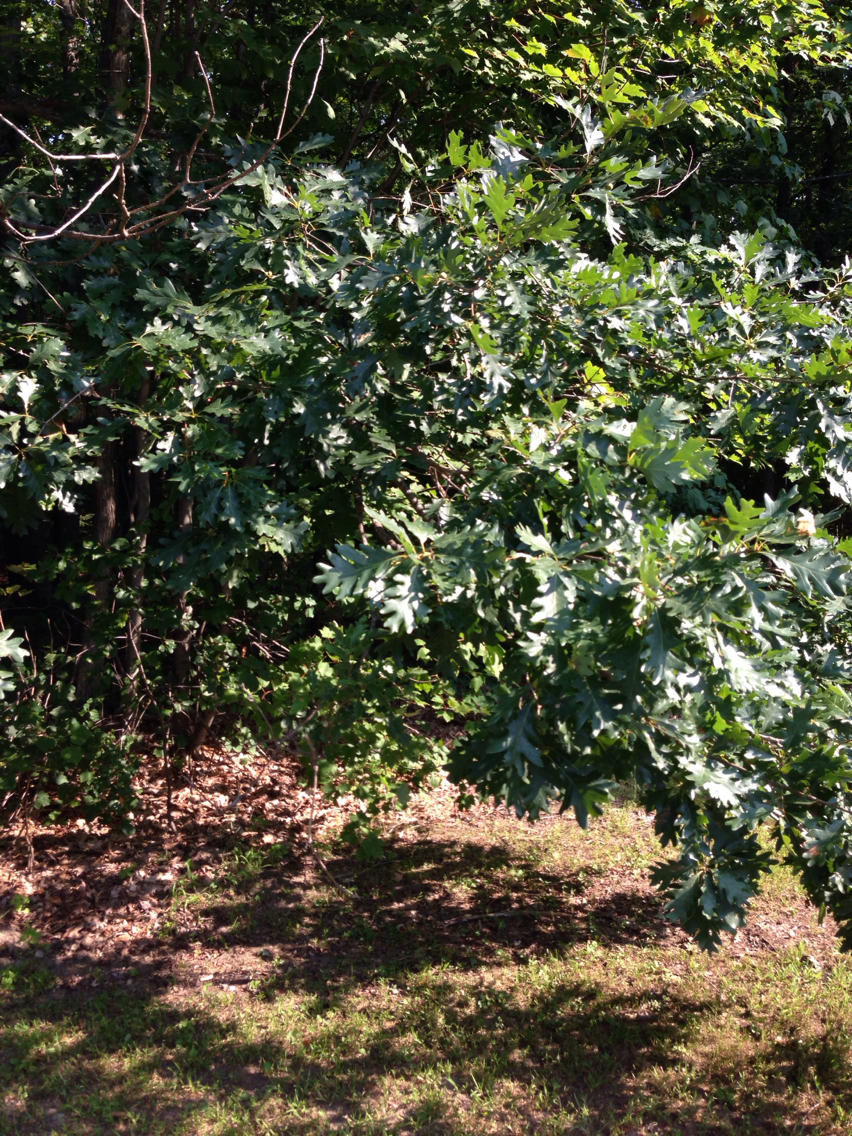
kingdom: Plantae
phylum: Tracheophyta
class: Magnoliopsida
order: Fagales
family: Fagaceae
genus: Quercus
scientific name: Quercus alba
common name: White oak
